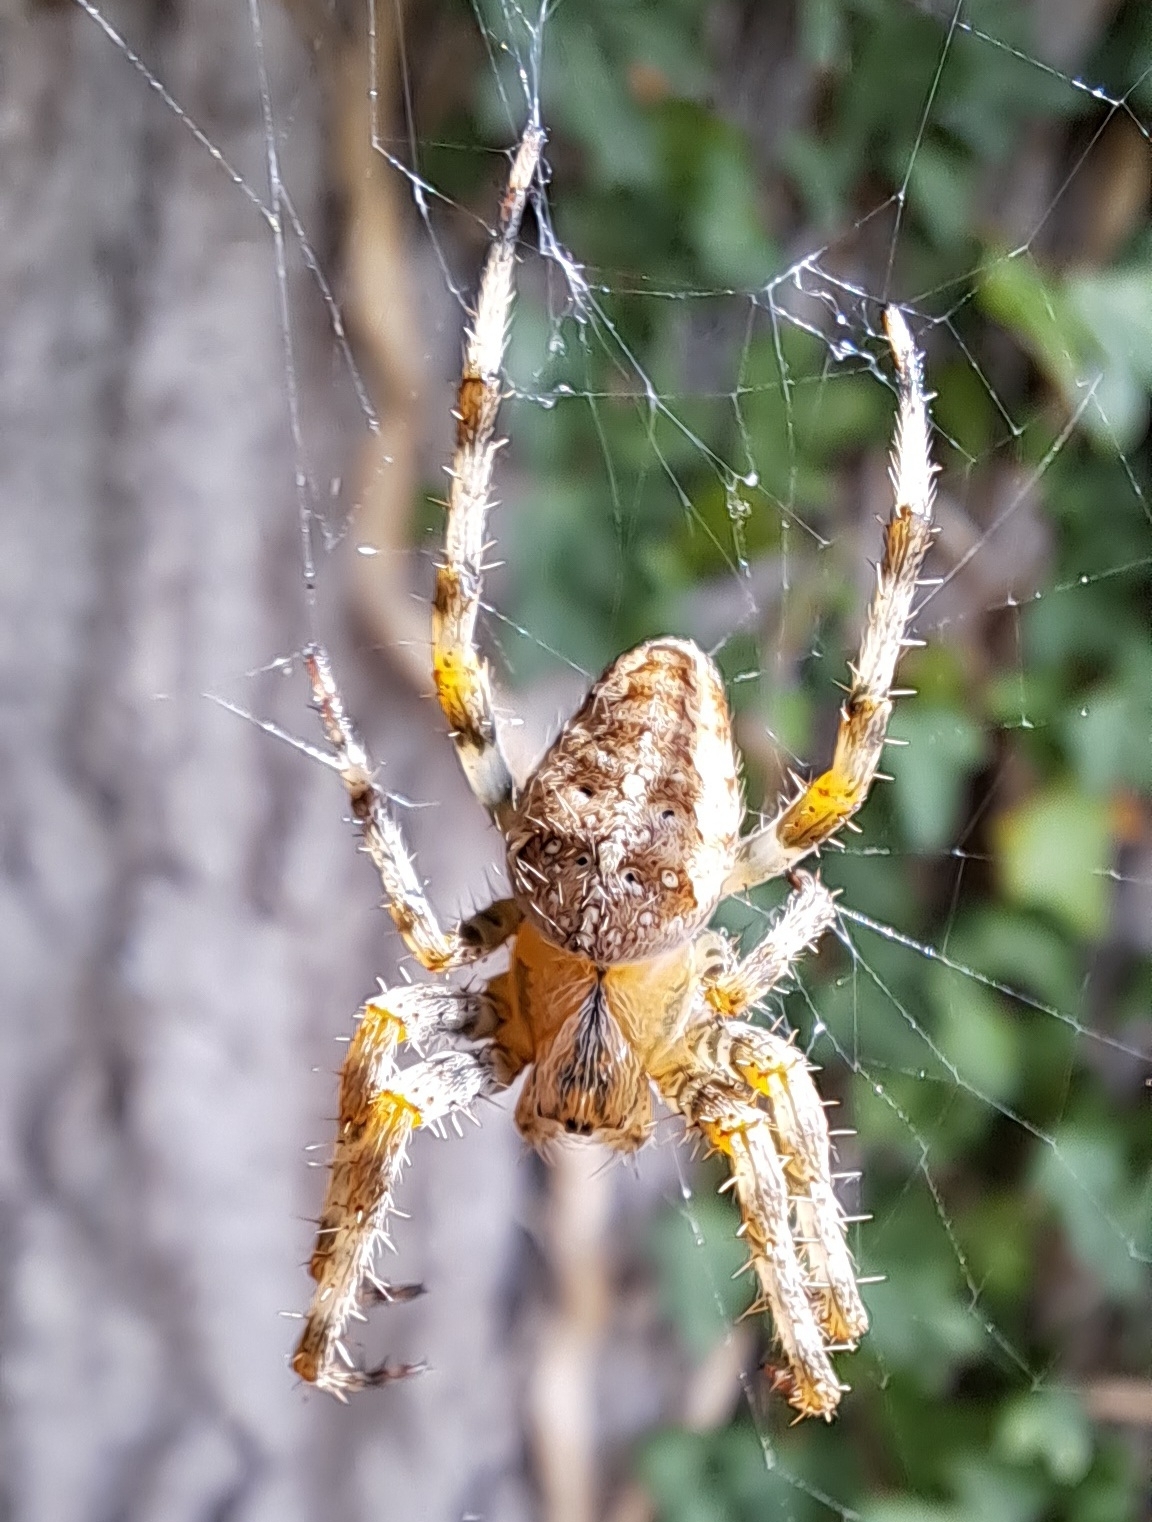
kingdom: Animalia
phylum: Arthropoda
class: Arachnida
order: Araneae
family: Araneidae
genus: Araneus
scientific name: Araneus diadematus
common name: Cross orbweaver
